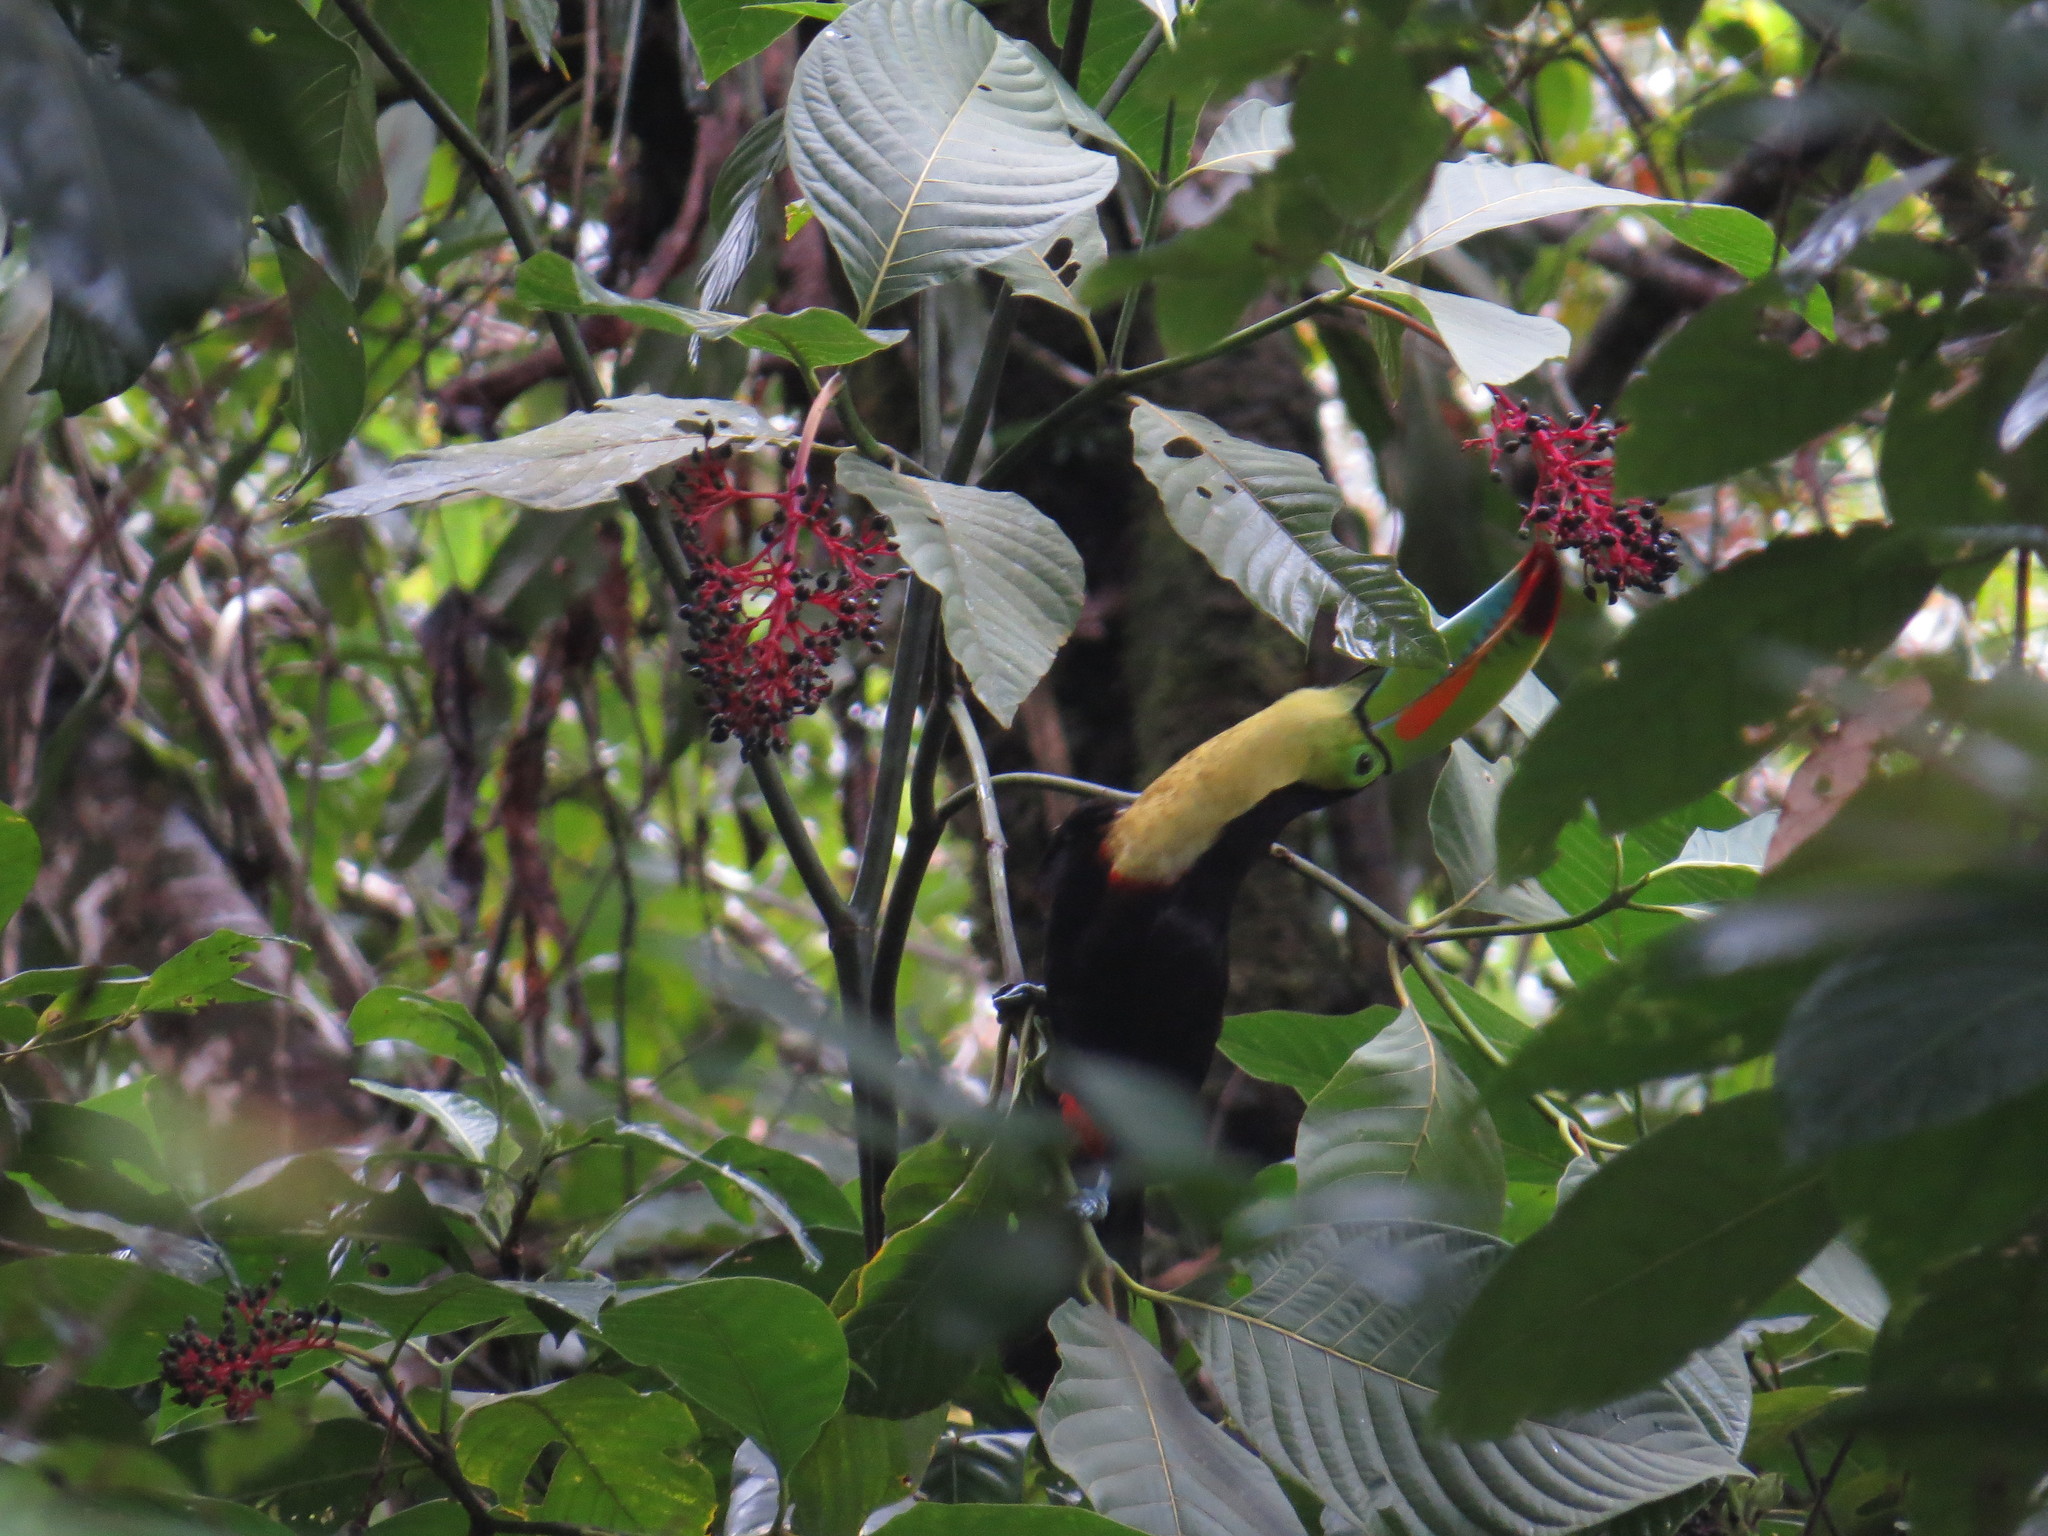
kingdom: Animalia
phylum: Chordata
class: Aves
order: Piciformes
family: Ramphastidae
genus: Ramphastos
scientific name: Ramphastos sulfuratus
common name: Keel-billed toucan
